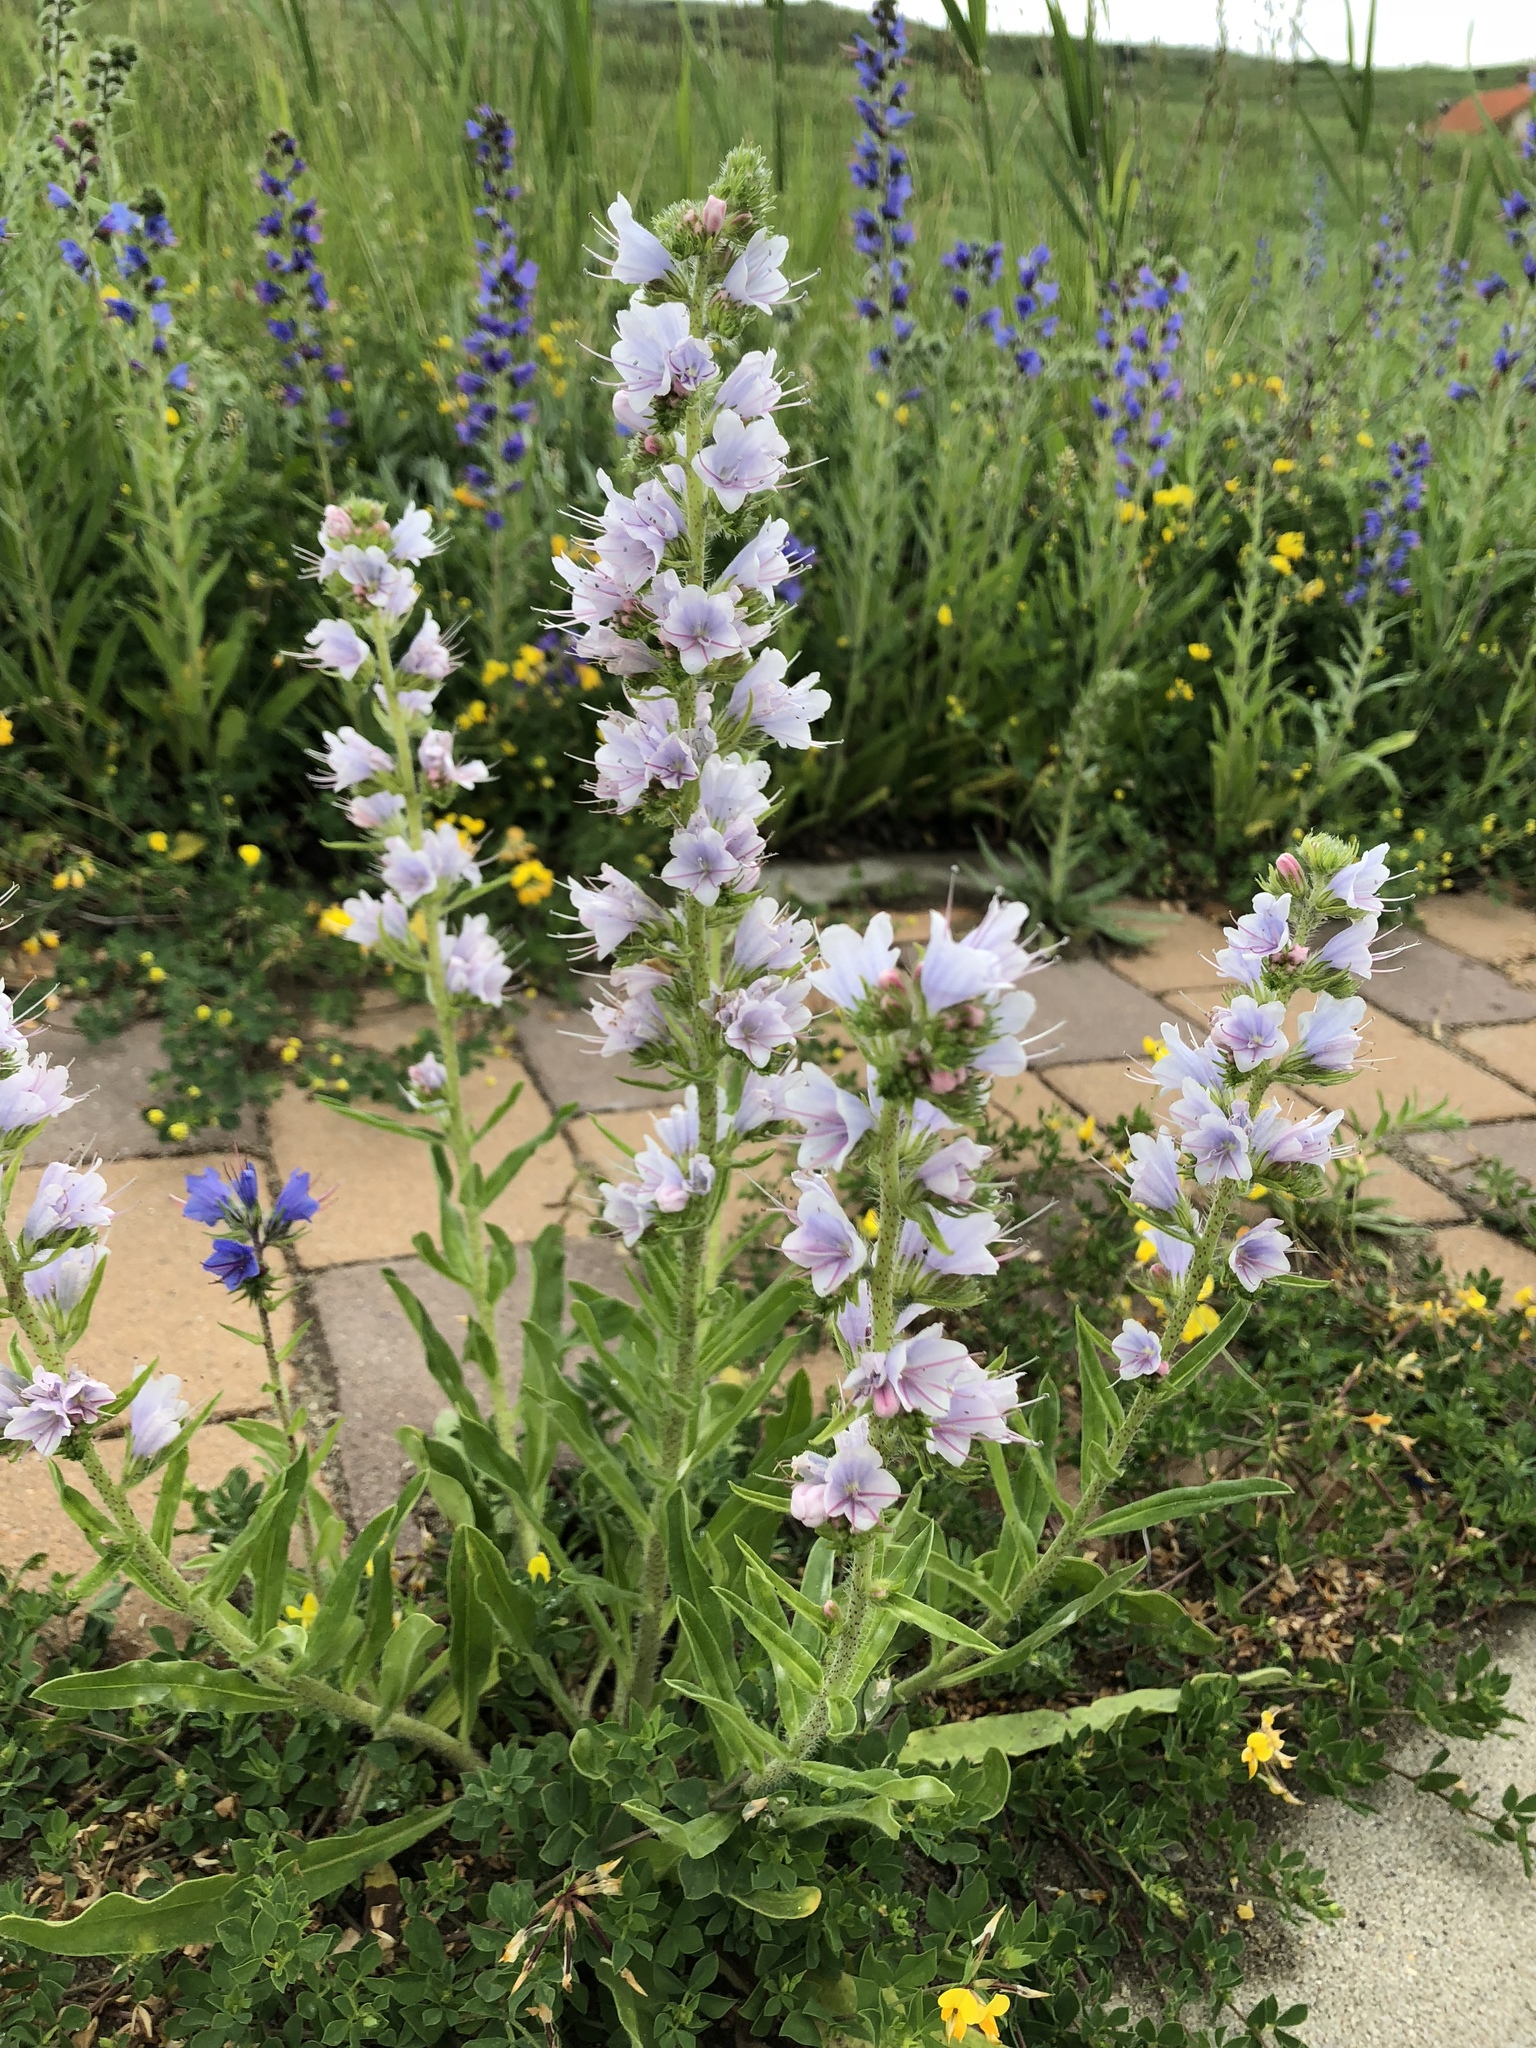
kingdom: Plantae
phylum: Tracheophyta
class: Magnoliopsida
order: Boraginales
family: Boraginaceae
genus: Echium
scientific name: Echium vulgare
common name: Common viper's bugloss
